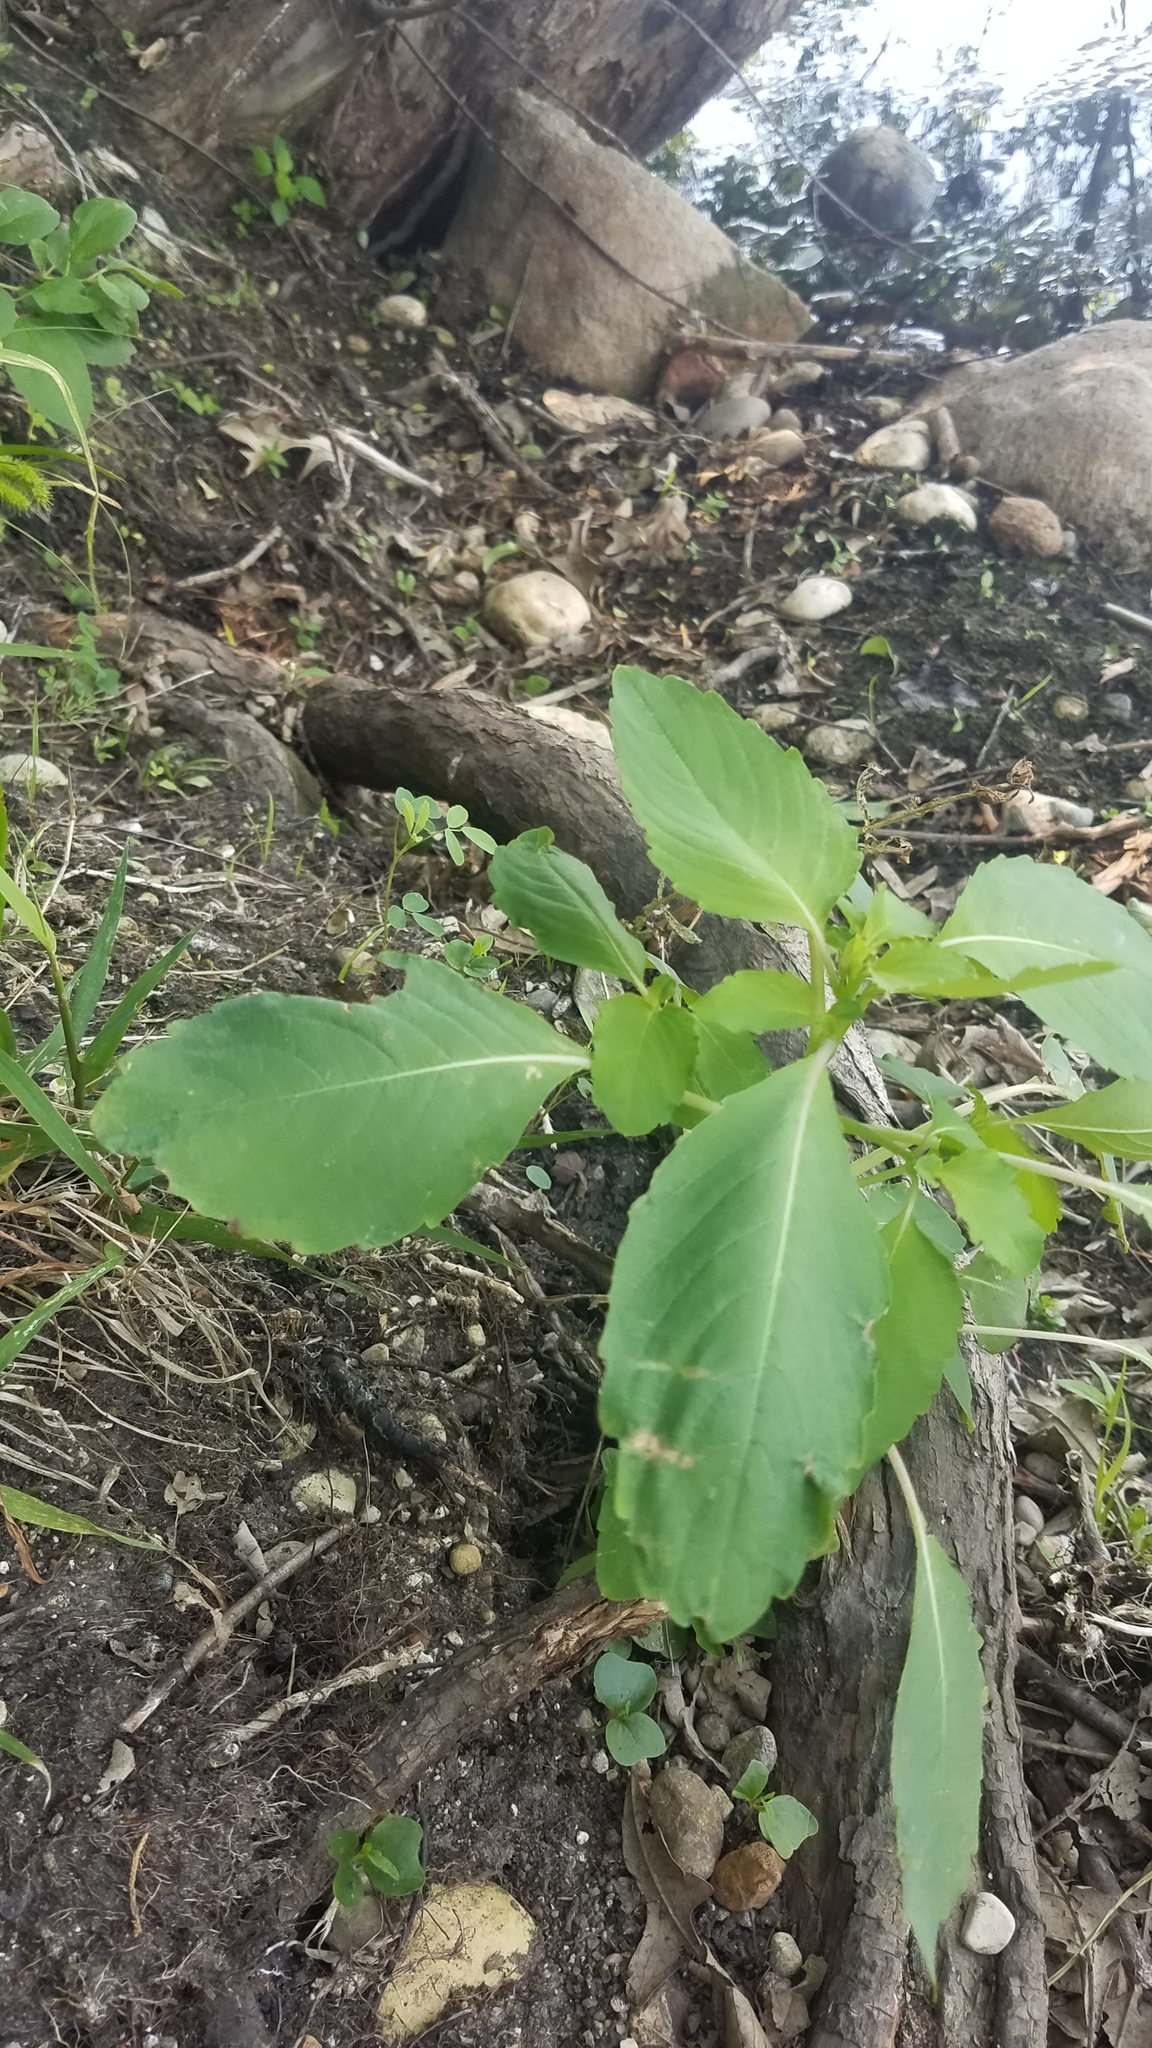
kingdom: Plantae
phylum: Tracheophyta
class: Magnoliopsida
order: Ericales
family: Balsaminaceae
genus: Impatiens
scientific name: Impatiens capensis
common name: Orange balsam
